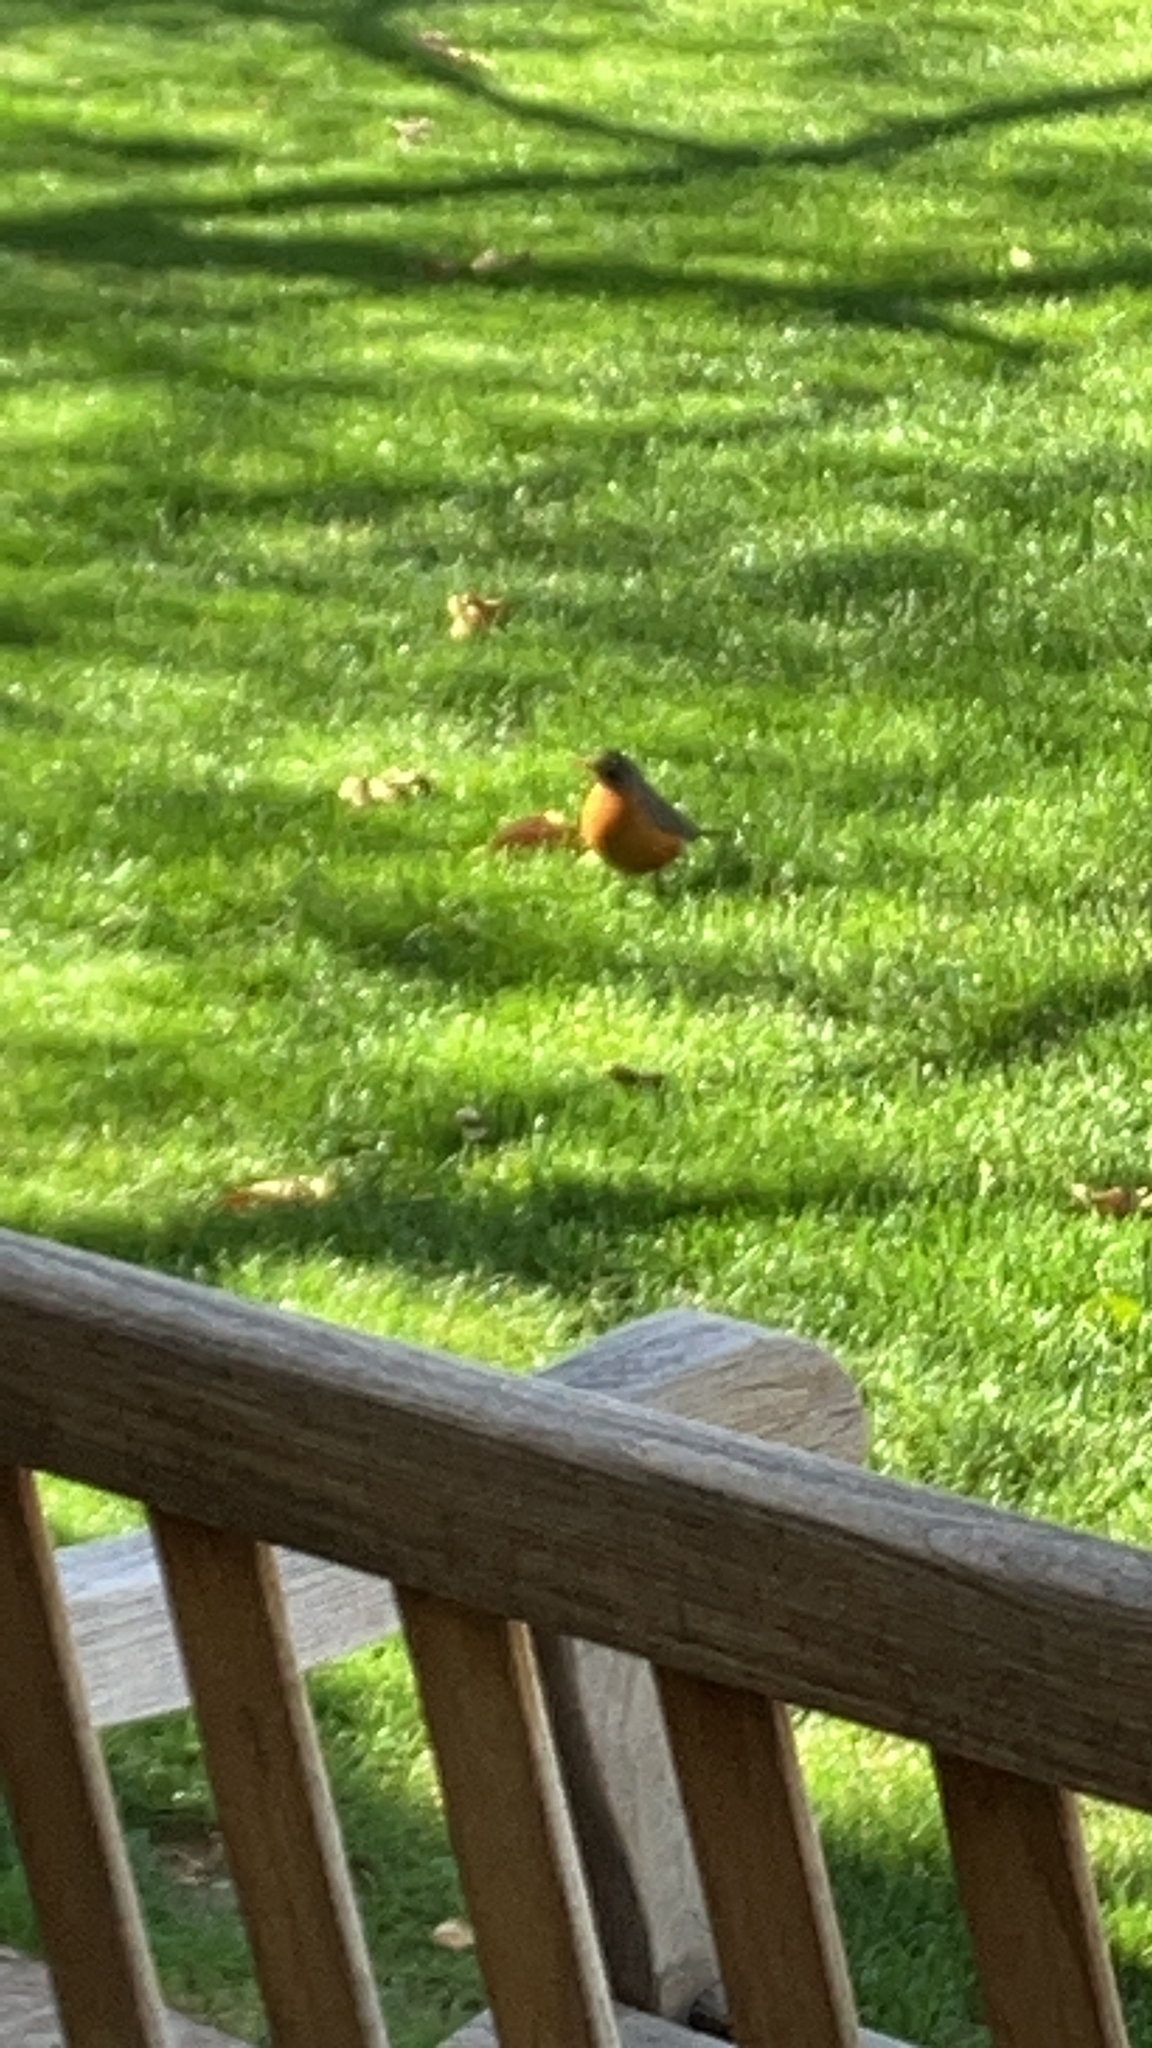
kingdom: Animalia
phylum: Chordata
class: Aves
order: Passeriformes
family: Turdidae
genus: Turdus
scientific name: Turdus migratorius
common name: American robin
